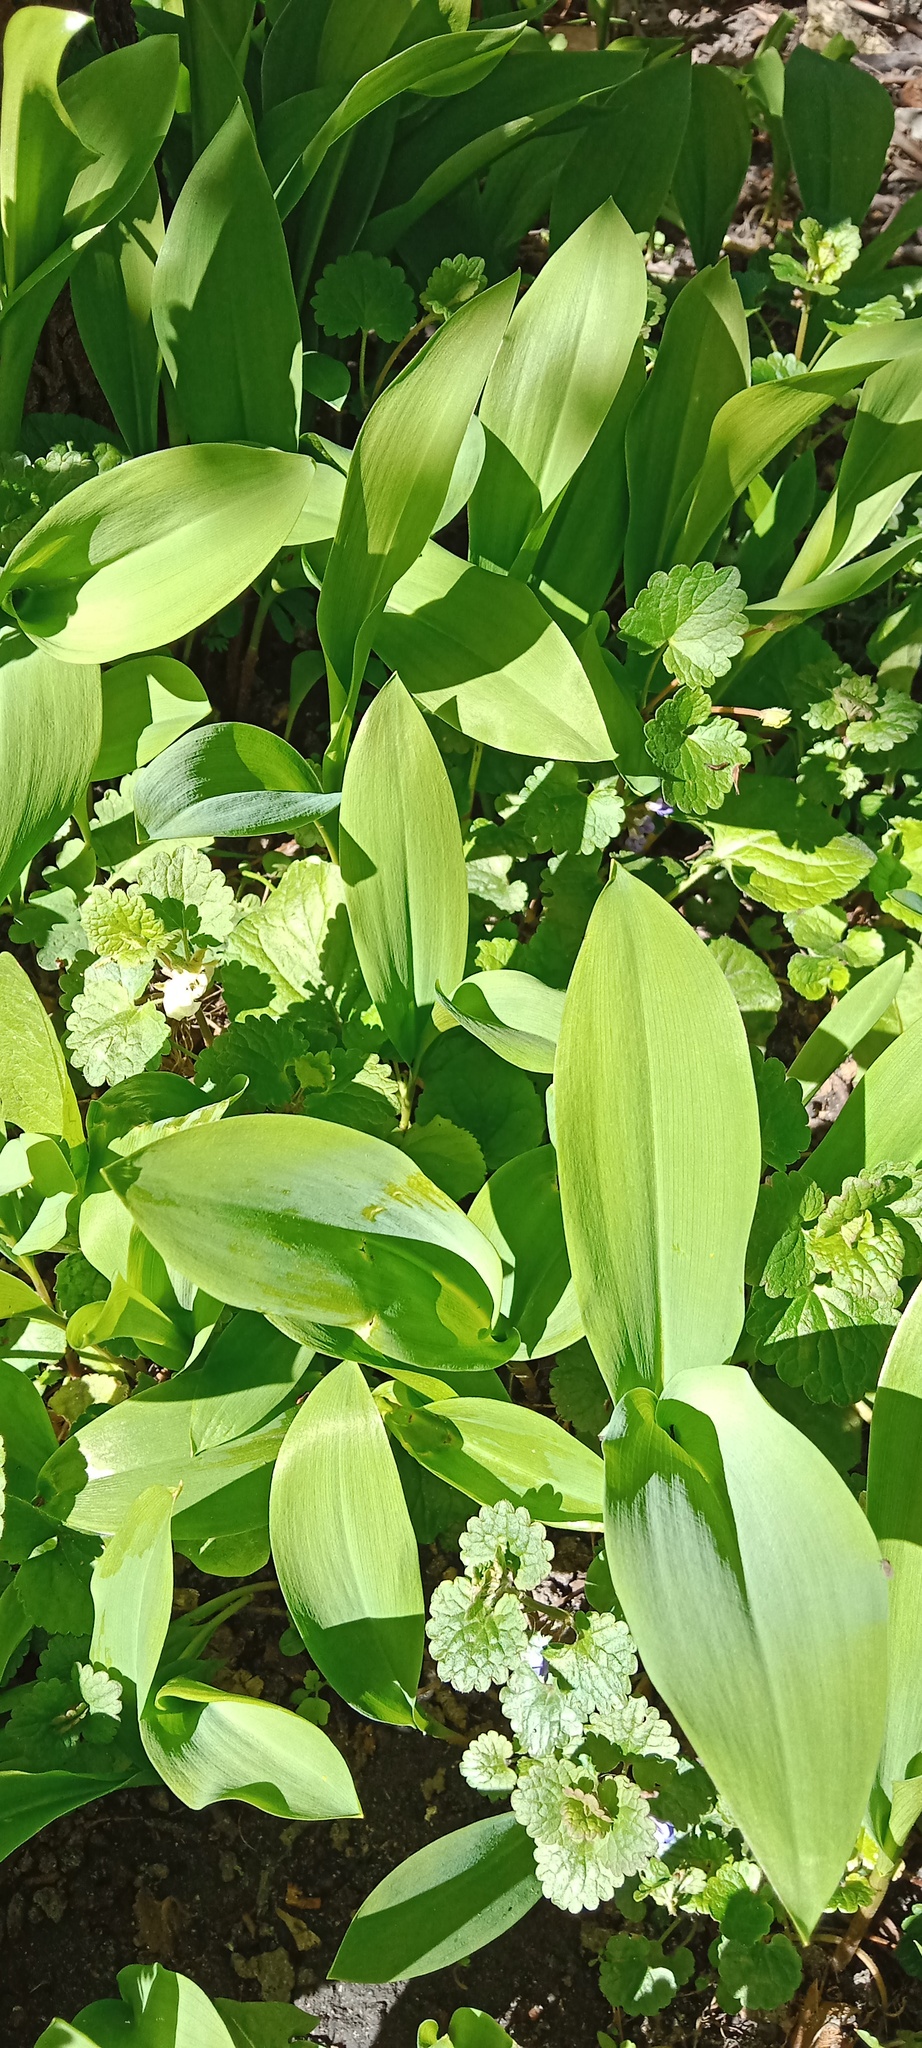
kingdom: Plantae
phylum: Tracheophyta
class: Liliopsida
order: Asparagales
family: Asparagaceae
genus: Convallaria
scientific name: Convallaria majalis
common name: Lily-of-the-valley
